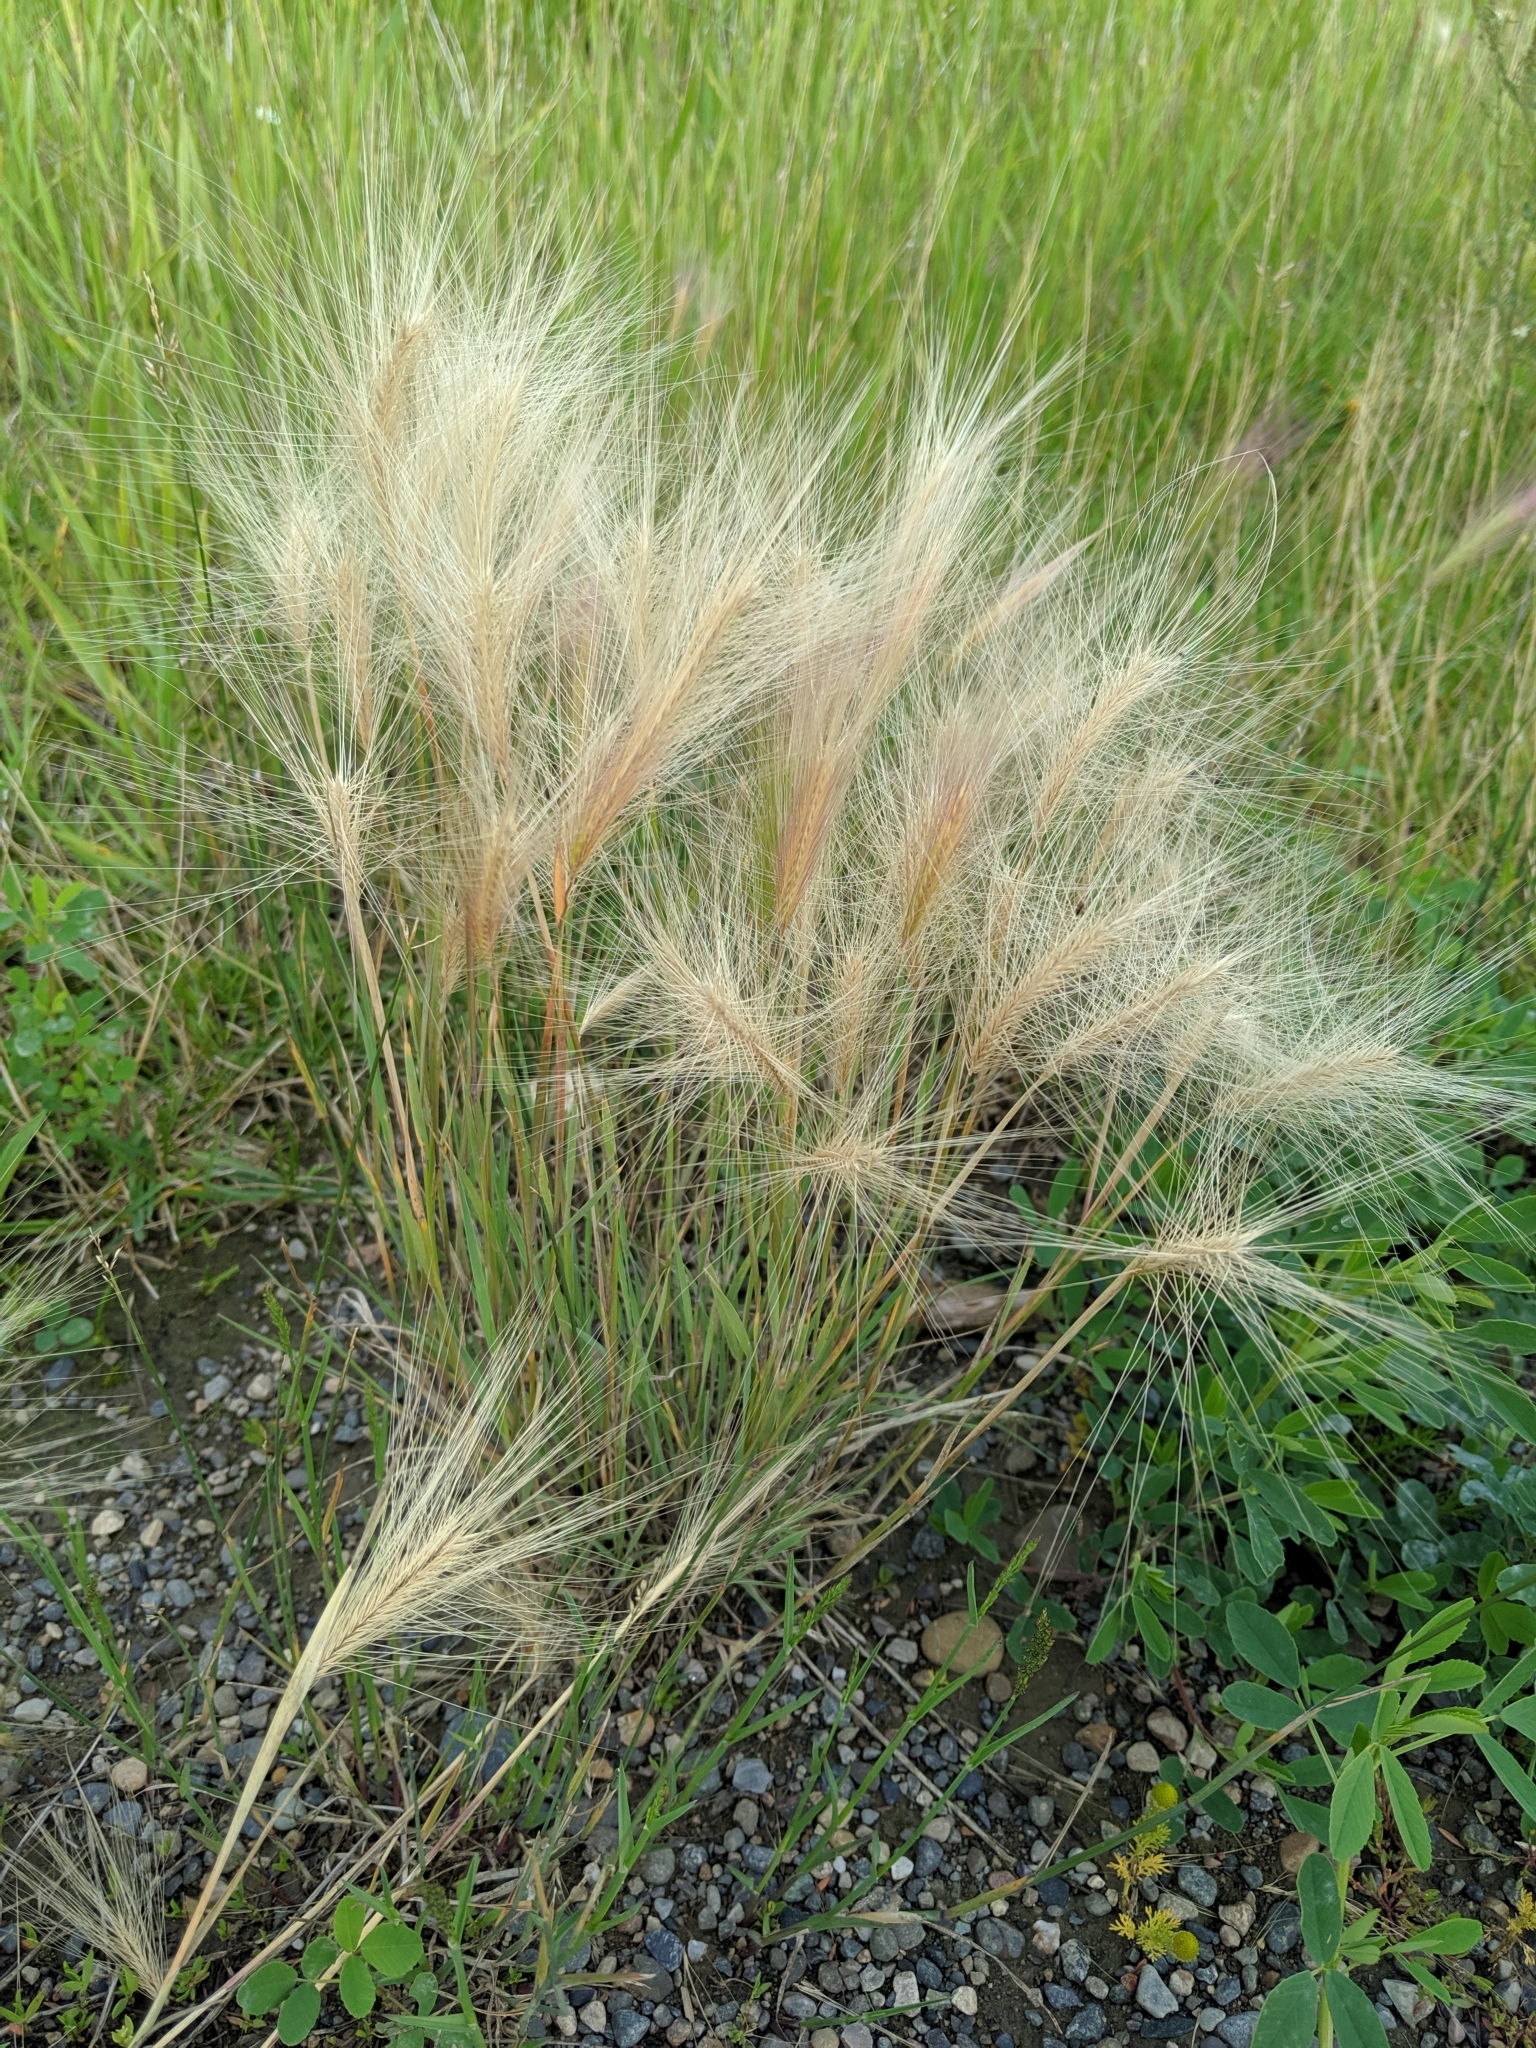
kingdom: Plantae
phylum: Tracheophyta
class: Liliopsida
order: Poales
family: Poaceae
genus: Hordeum
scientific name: Hordeum jubatum
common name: Foxtail barley
